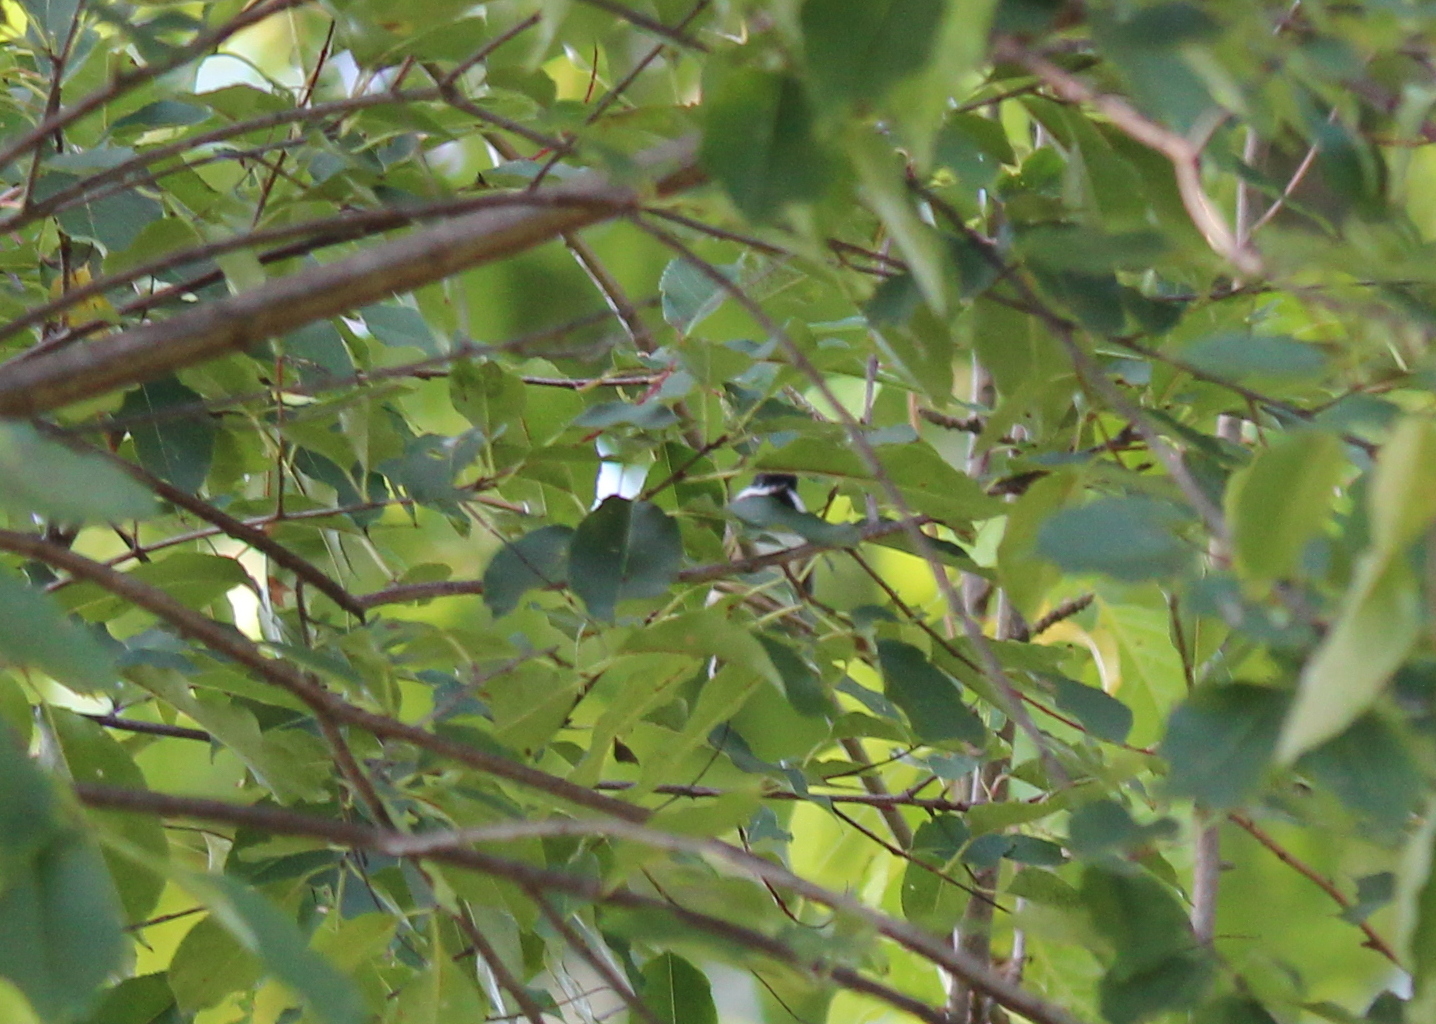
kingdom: Animalia
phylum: Chordata
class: Aves
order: Passeriformes
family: Paridae
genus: Poecile
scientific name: Poecile atricapillus
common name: Black-capped chickadee
